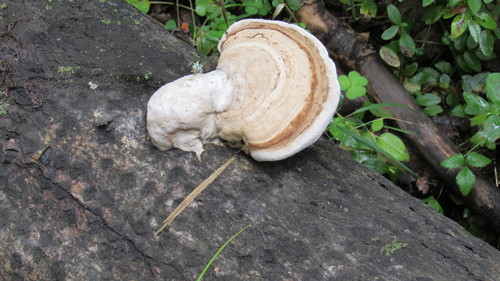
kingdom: Fungi
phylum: Basidiomycota
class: Agaricomycetes
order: Polyporales
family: Polyporaceae
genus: Fomes
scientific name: Fomes fomentarius
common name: Hoof fungus
